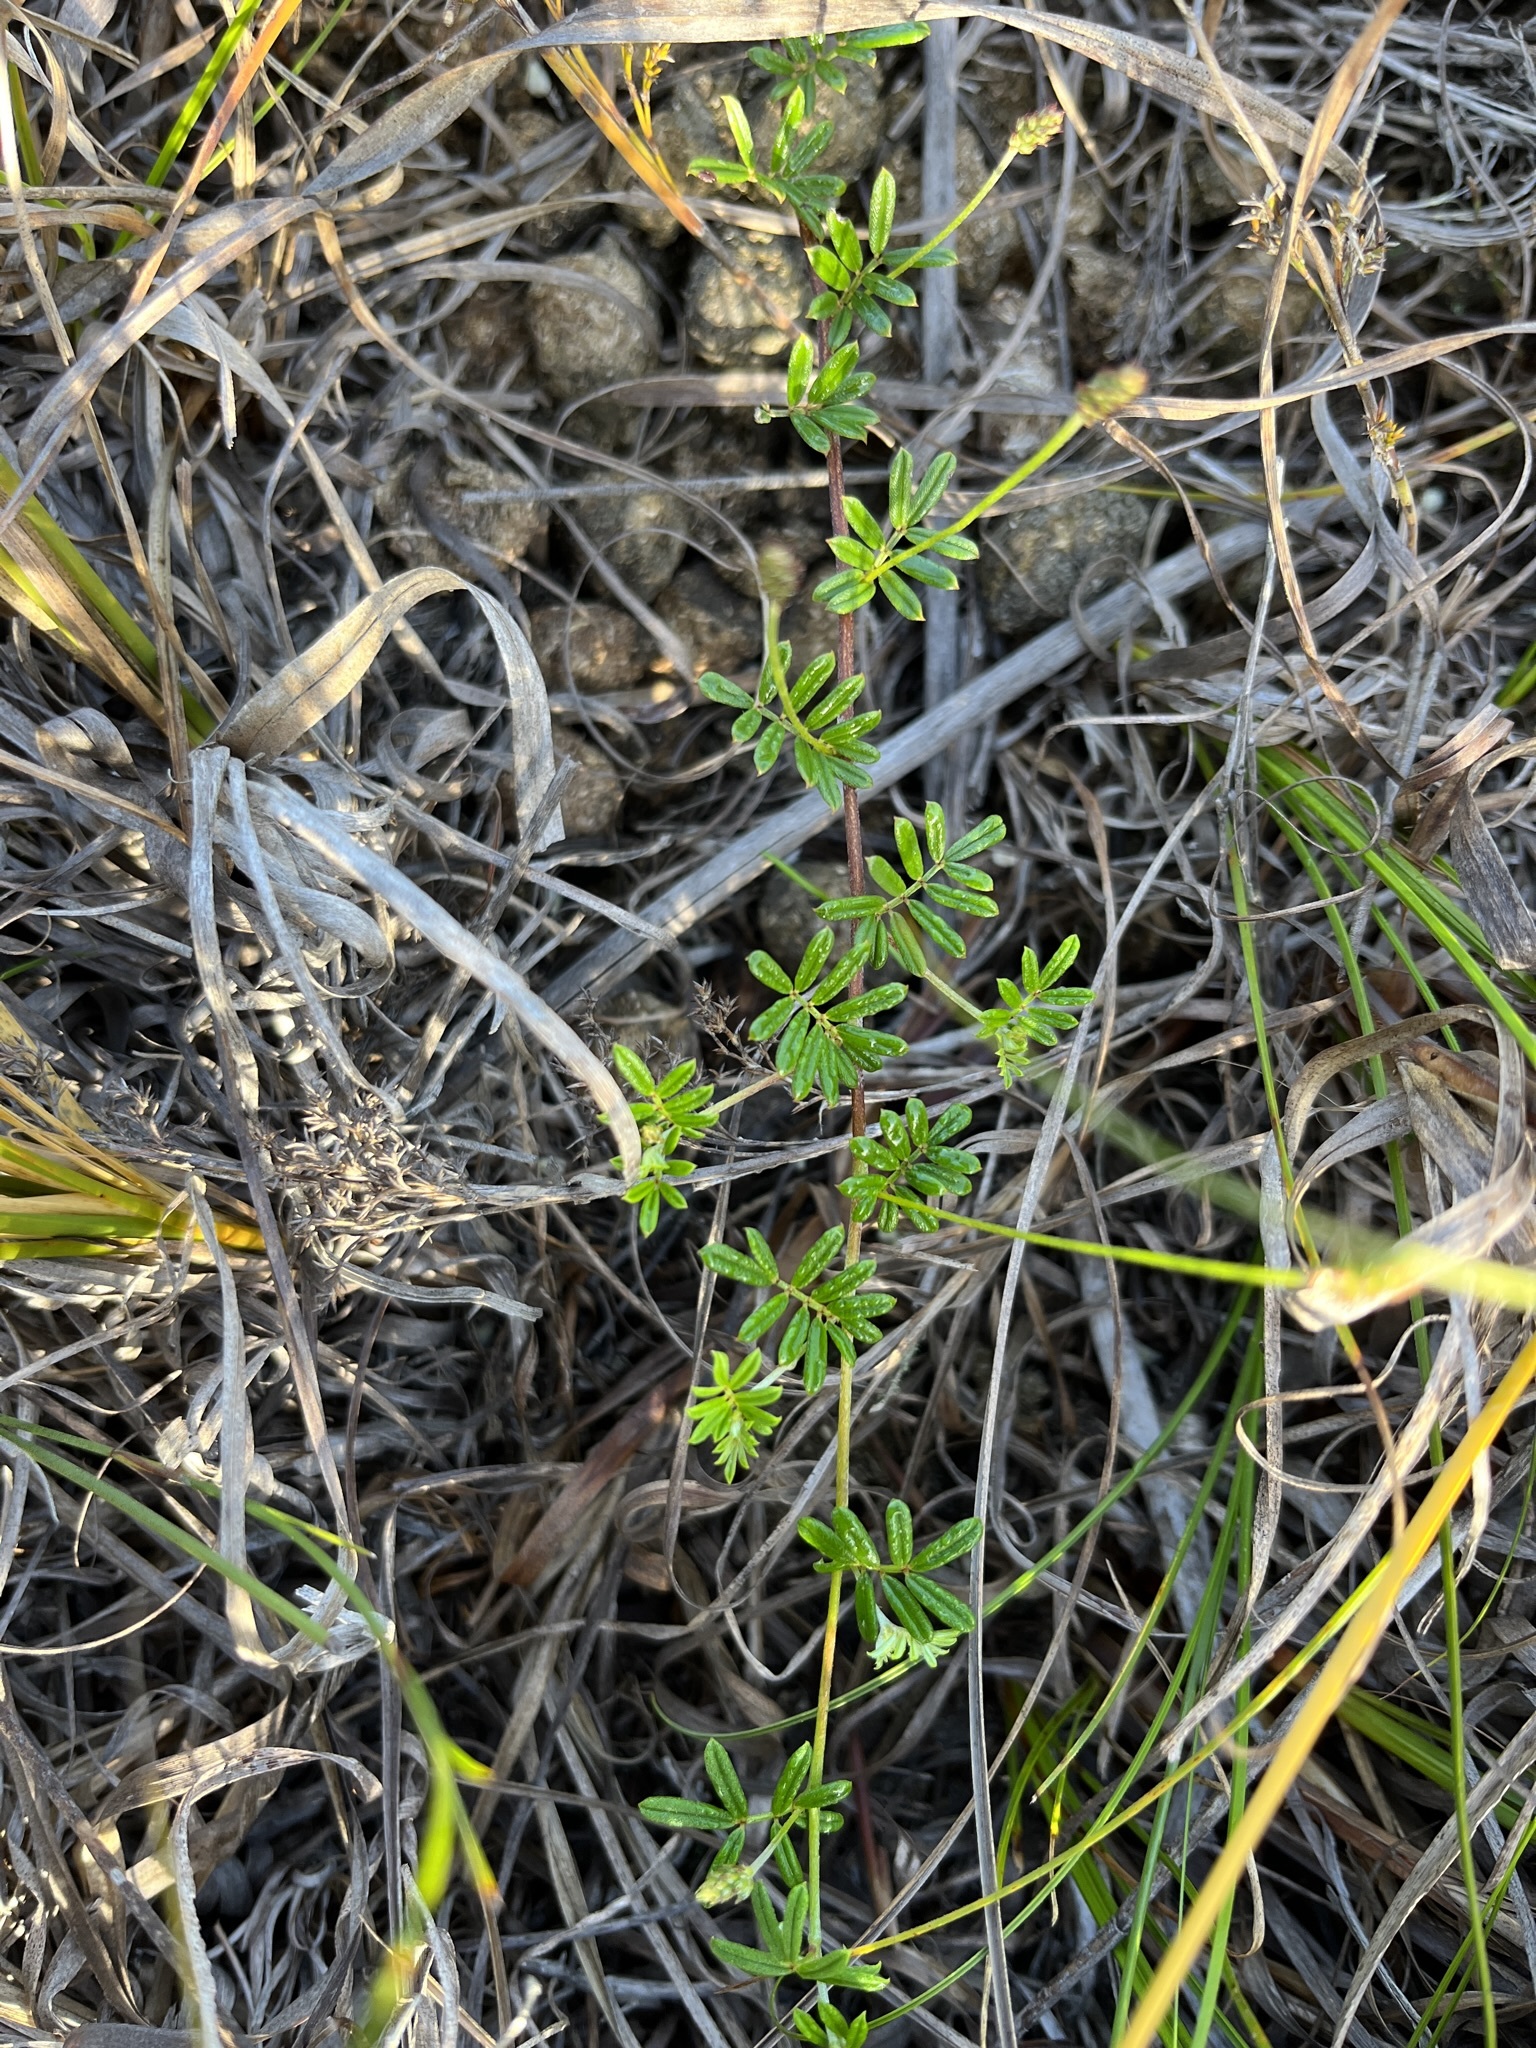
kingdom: Plantae
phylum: Tracheophyta
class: Magnoliopsida
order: Fabales
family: Fabaceae
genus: Indigofera
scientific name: Indigofera angustifolia
